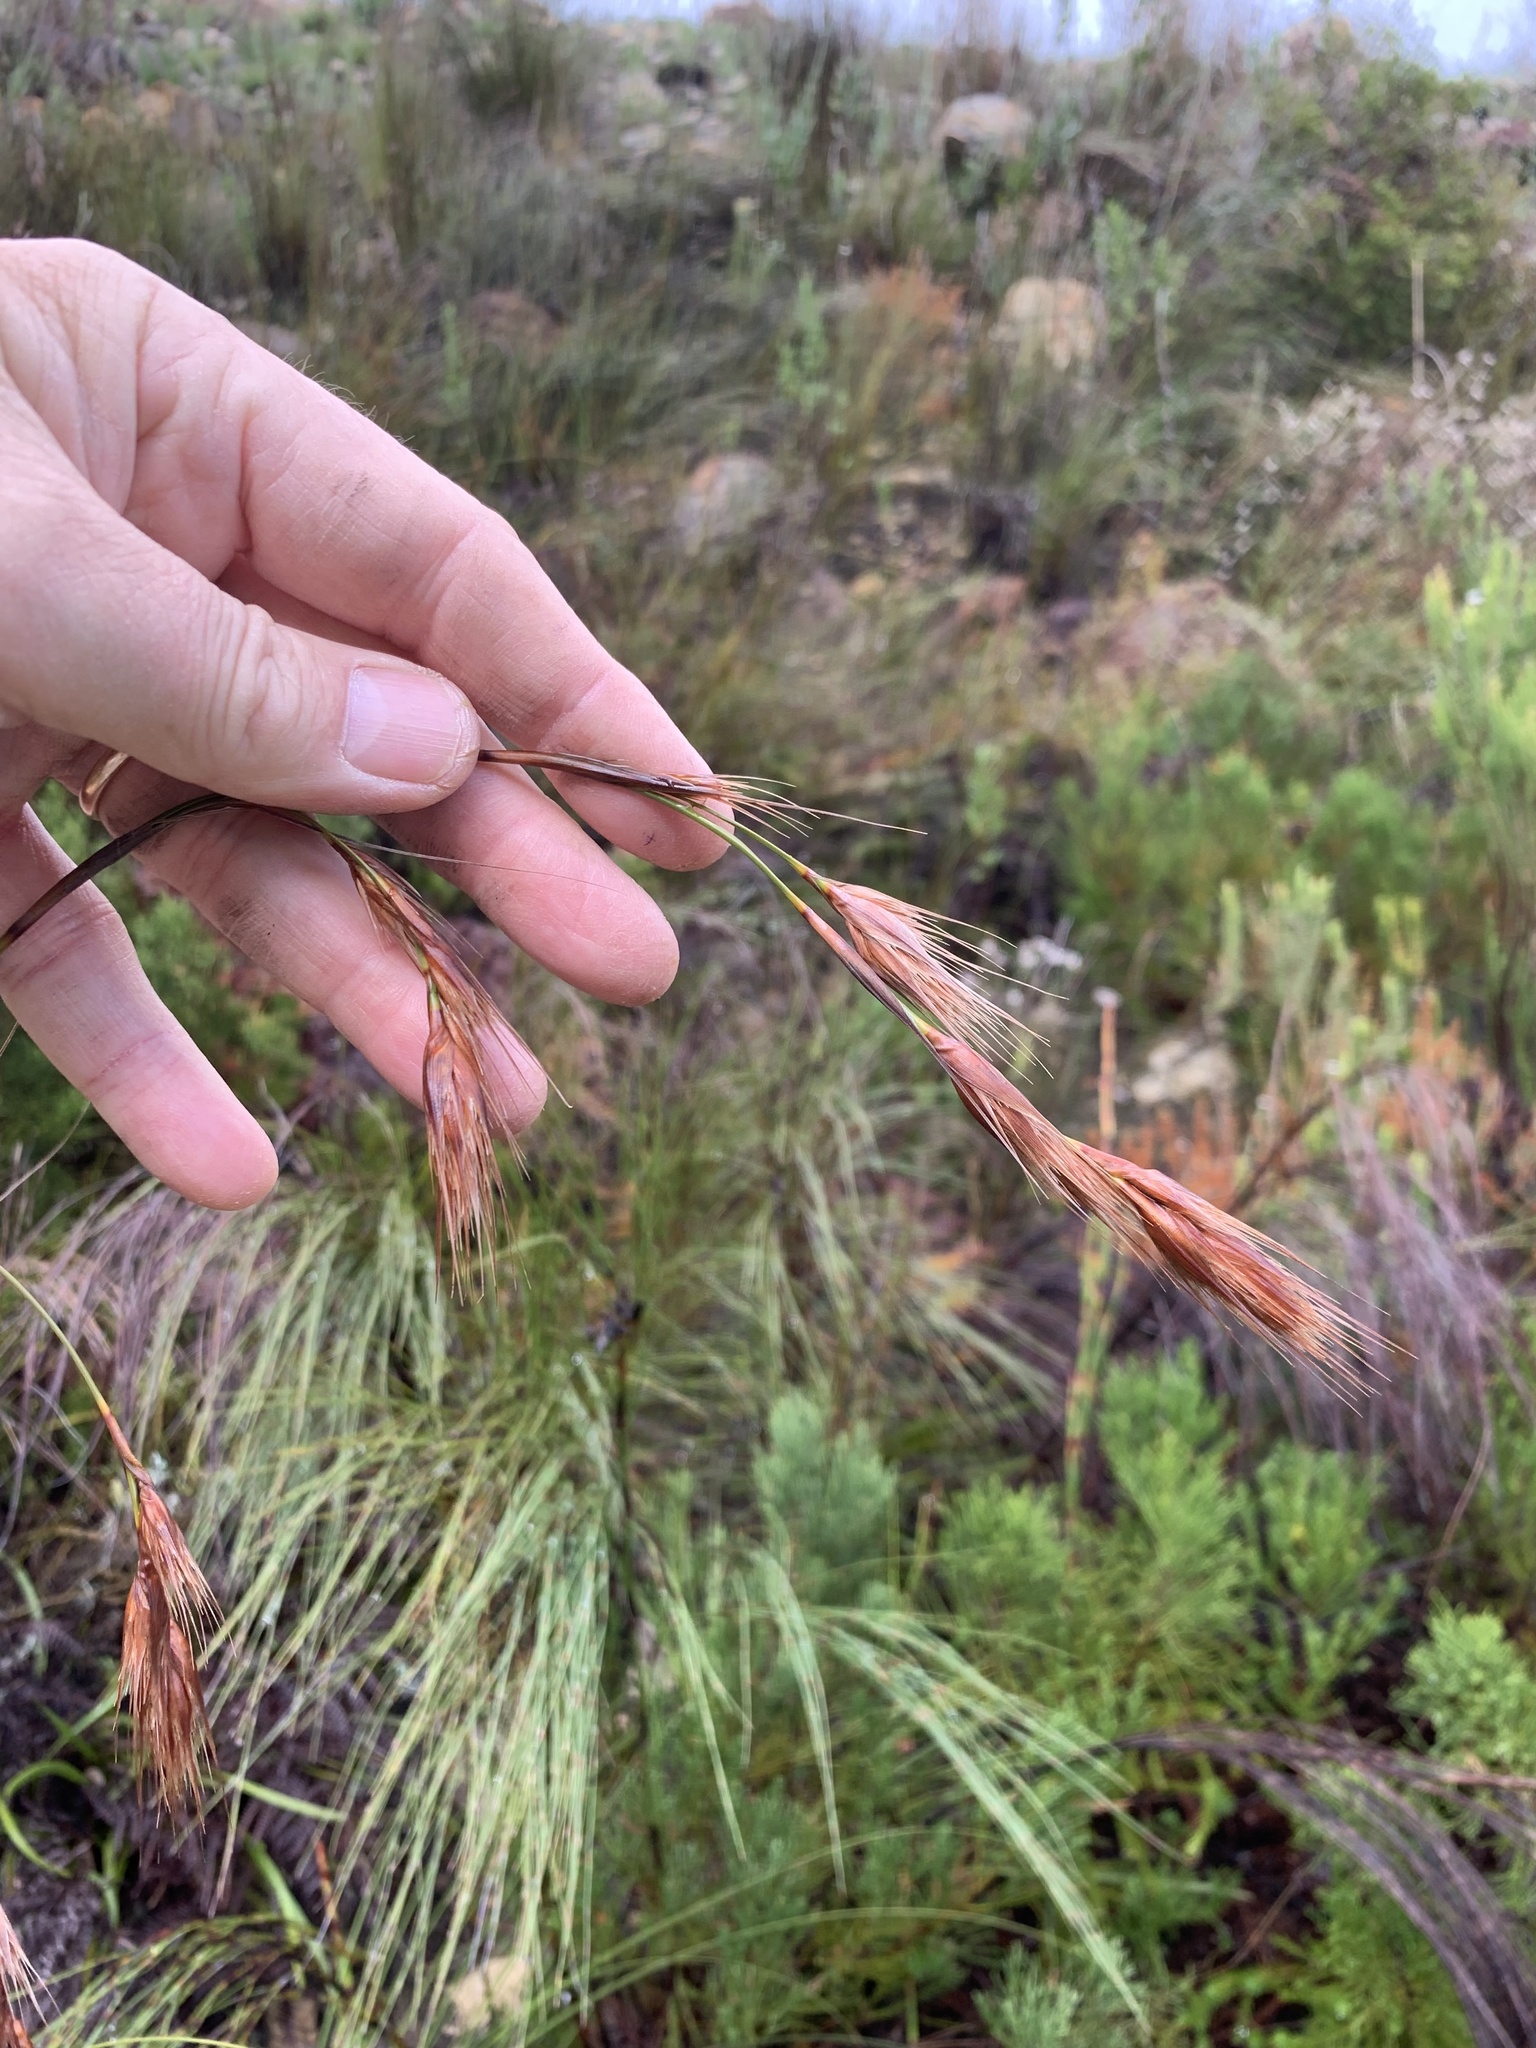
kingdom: Plantae
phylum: Tracheophyta
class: Liliopsida
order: Poales
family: Cyperaceae
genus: Tetraria
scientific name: Tetraria bromoides
